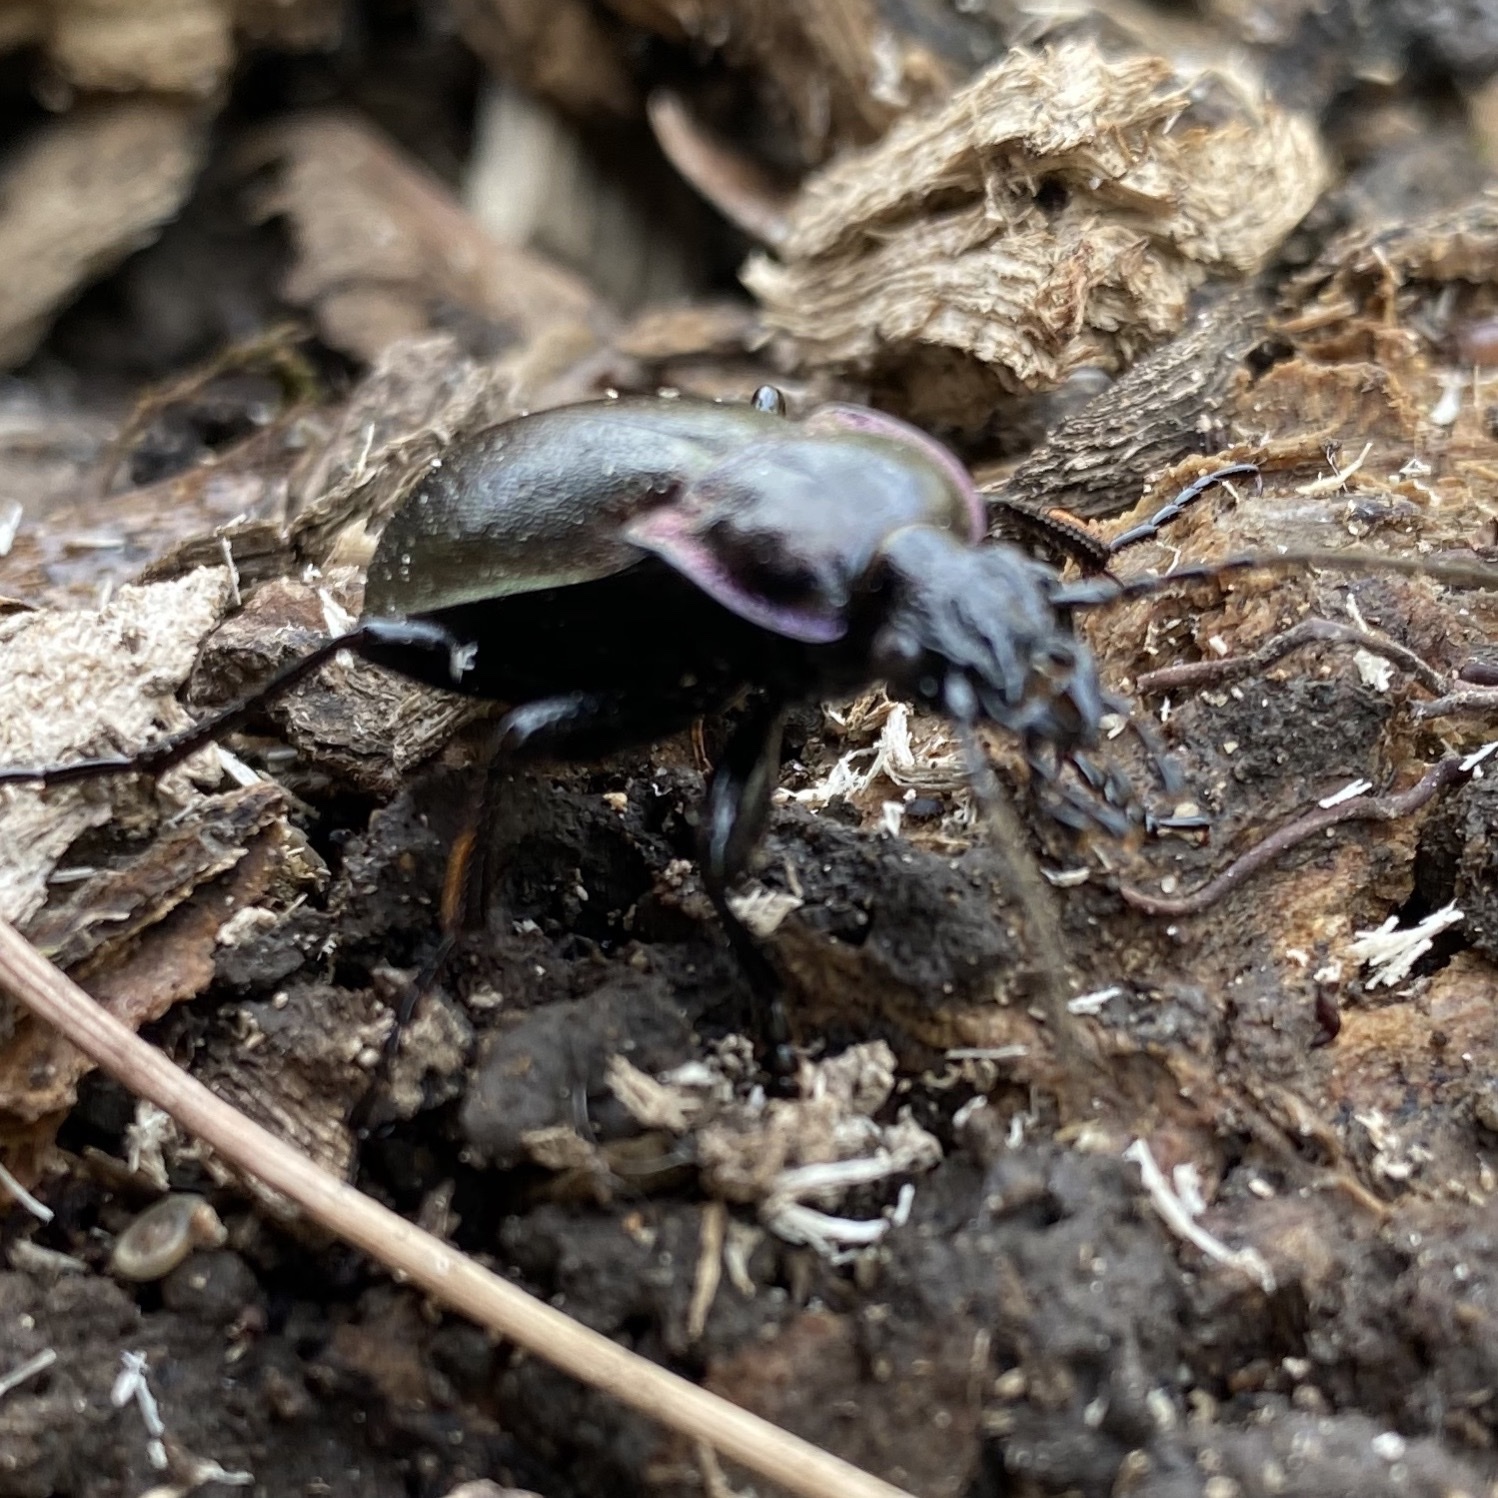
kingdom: Animalia
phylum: Arthropoda
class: Insecta
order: Coleoptera
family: Carabidae
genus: Carabus
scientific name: Carabus nemoralis
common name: European ground beetle
